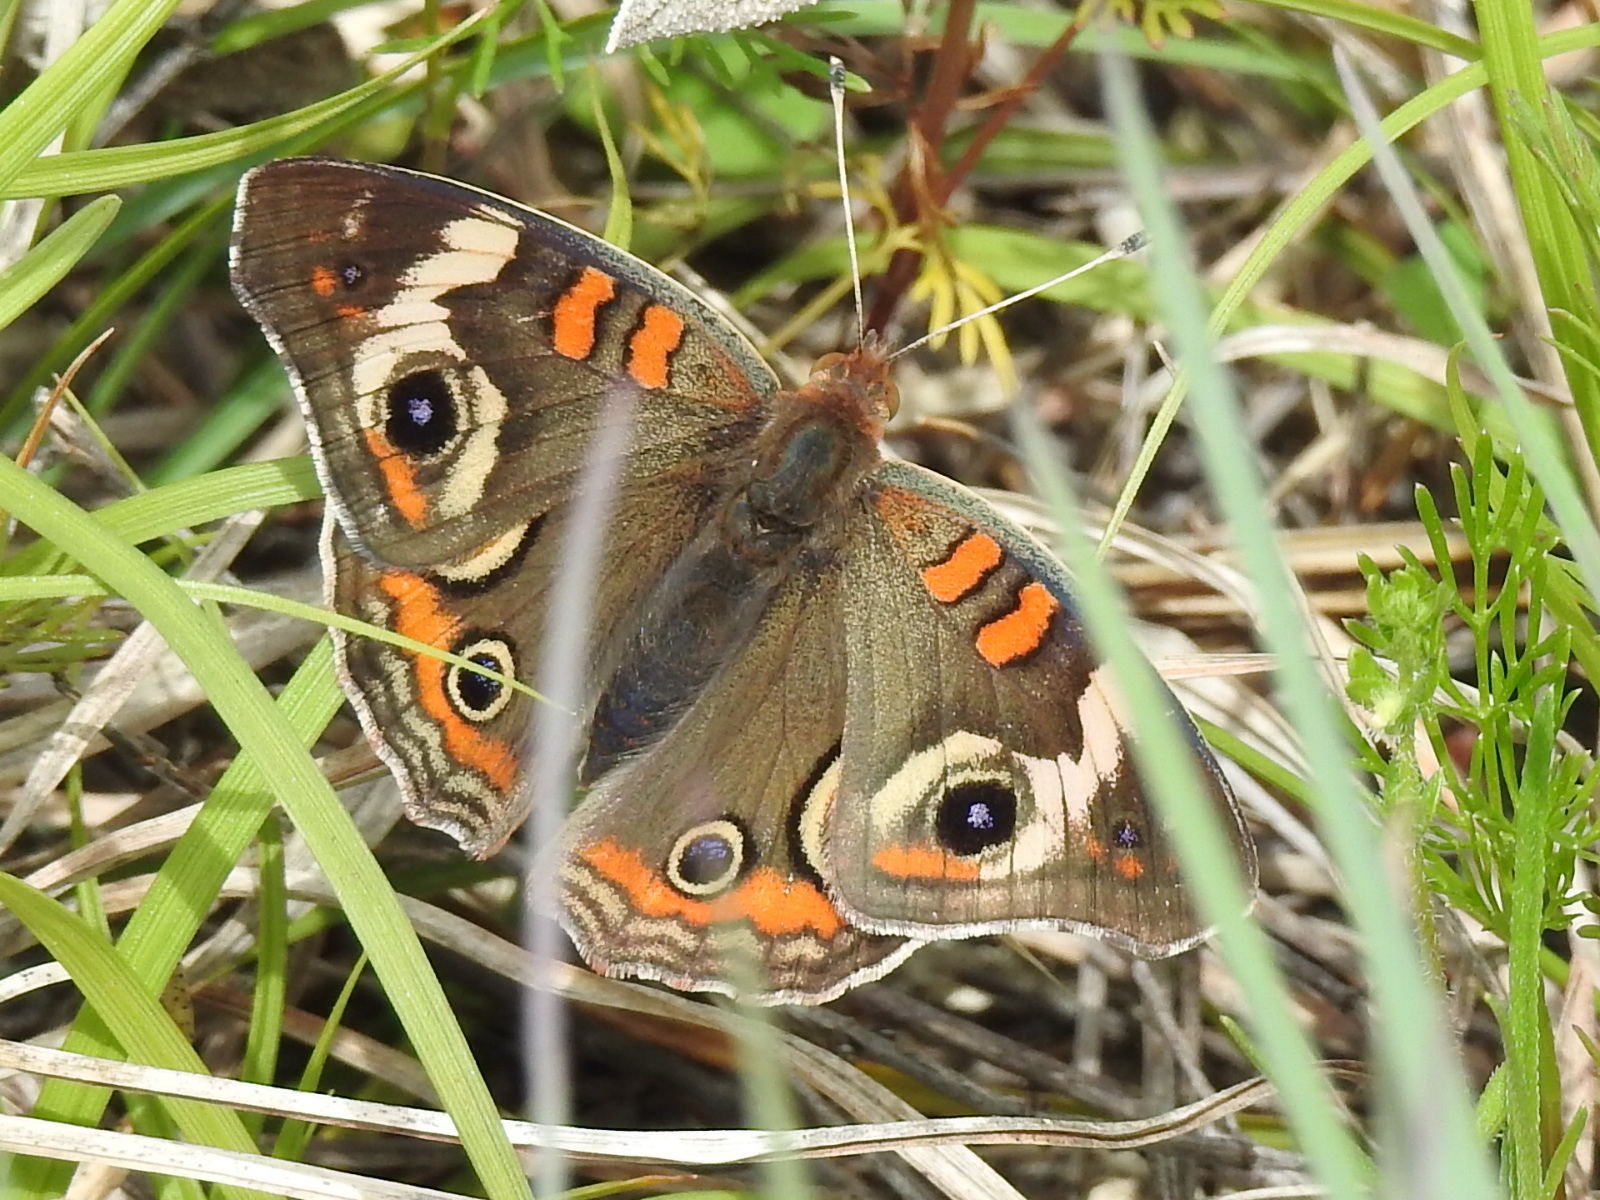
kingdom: Animalia
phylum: Arthropoda
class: Insecta
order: Lepidoptera
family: Nymphalidae
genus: Junonia
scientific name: Junonia coenia
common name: Common buckeye
